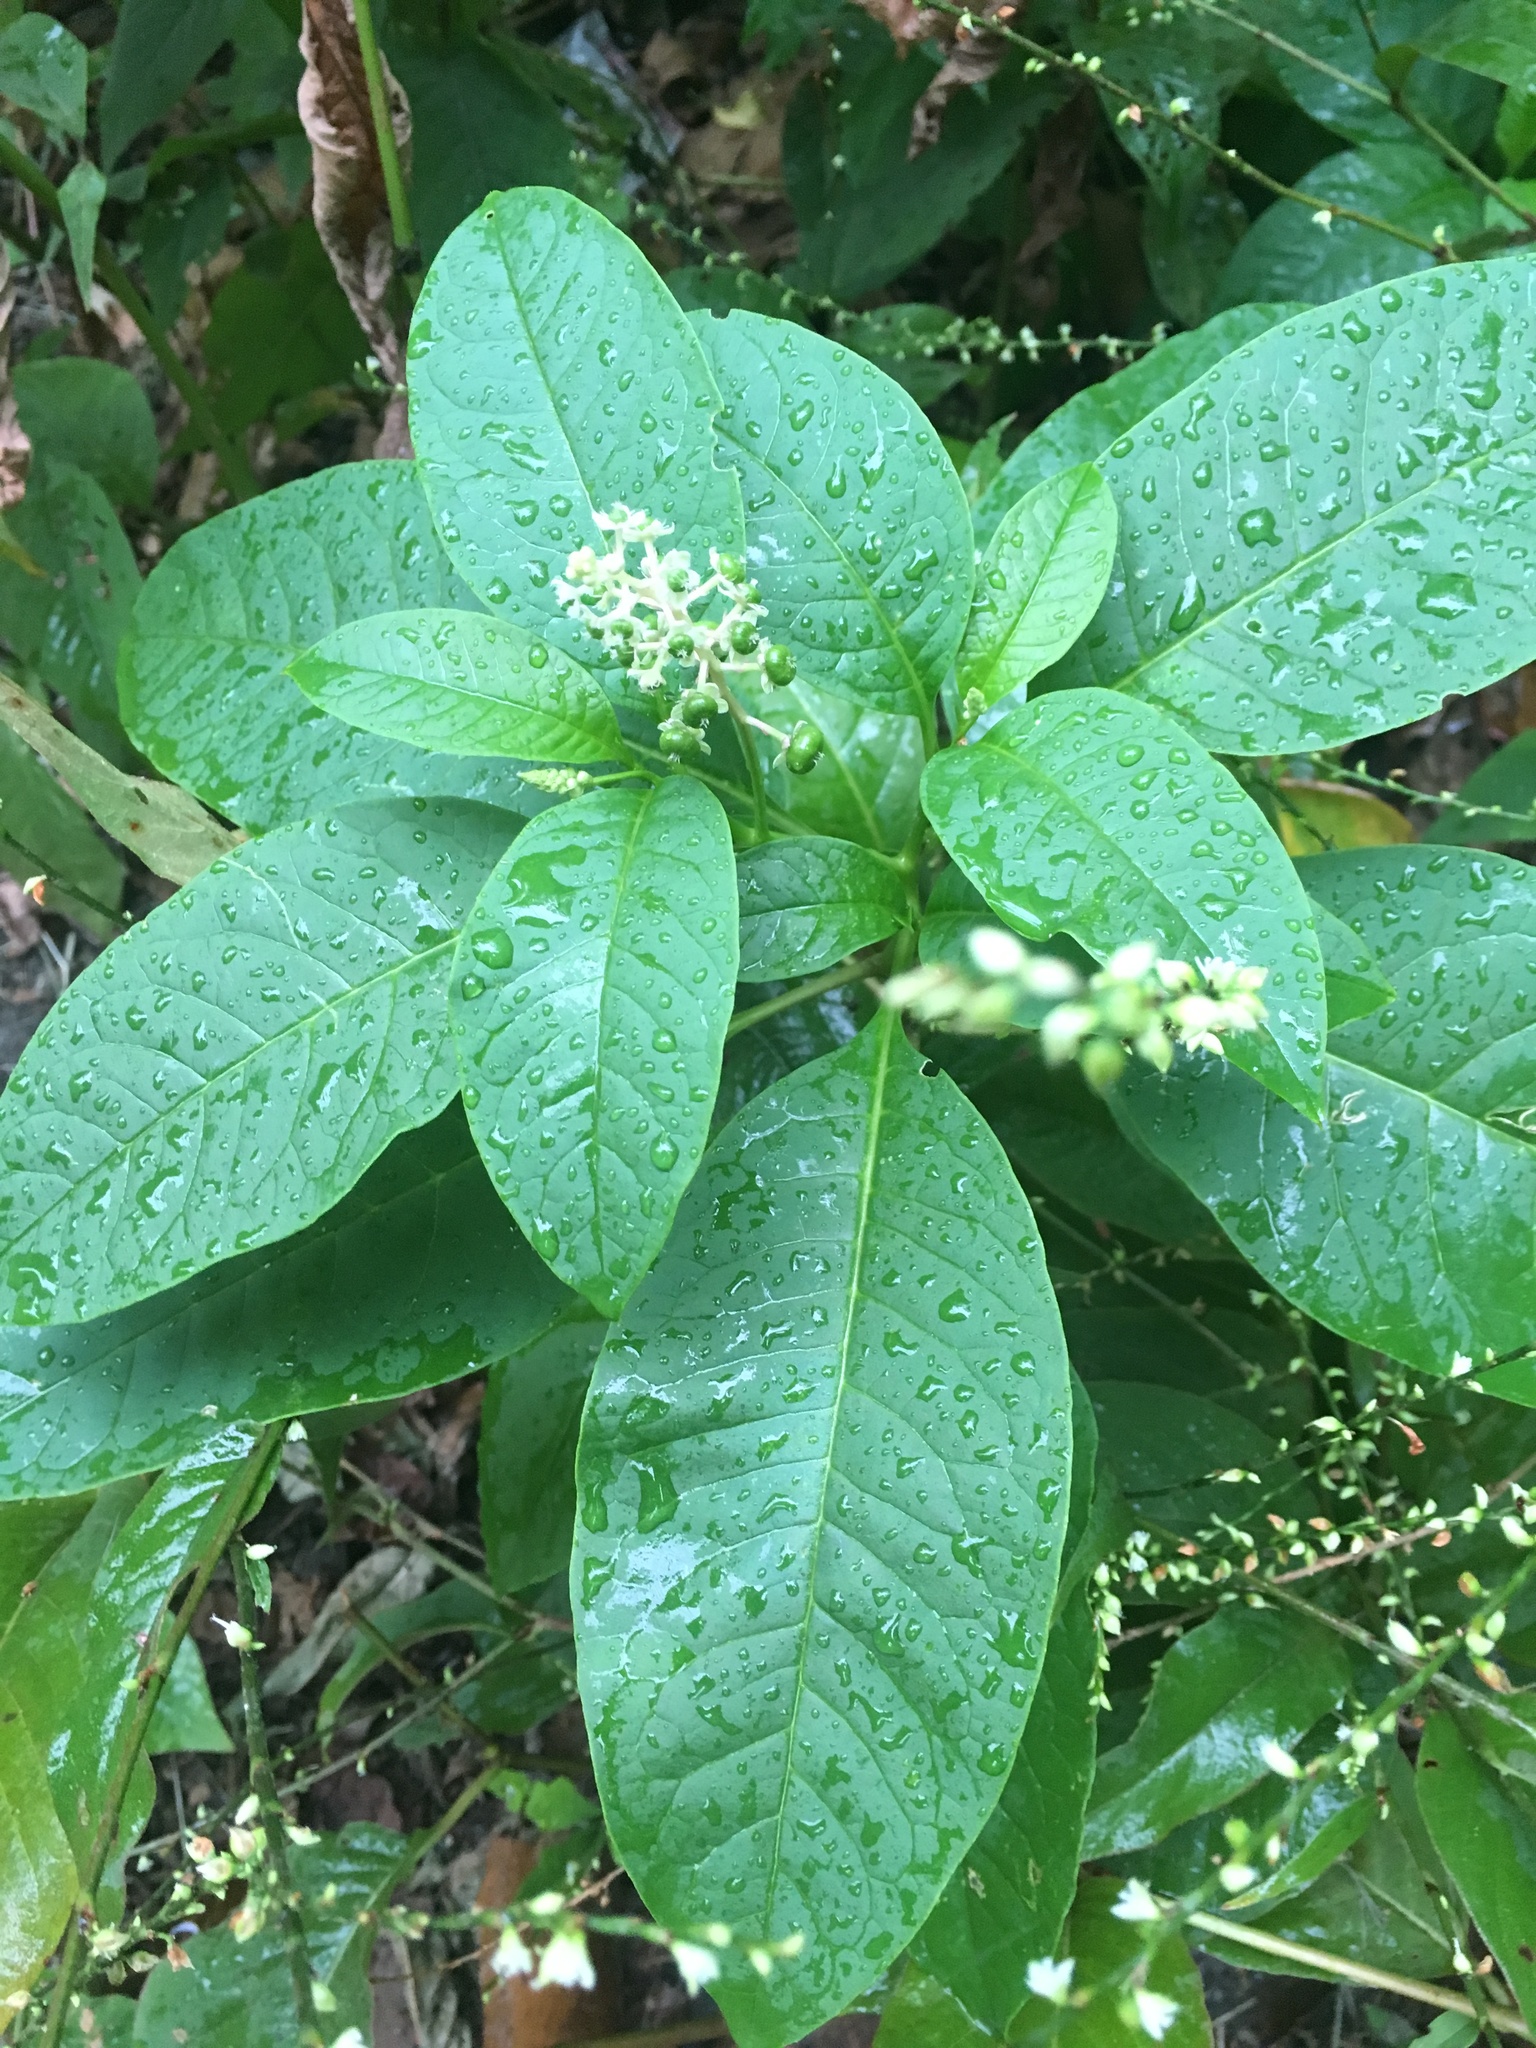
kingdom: Plantae
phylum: Tracheophyta
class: Magnoliopsida
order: Caryophyllales
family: Phytolaccaceae
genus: Phytolacca
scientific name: Phytolacca americana
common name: American pokeweed
